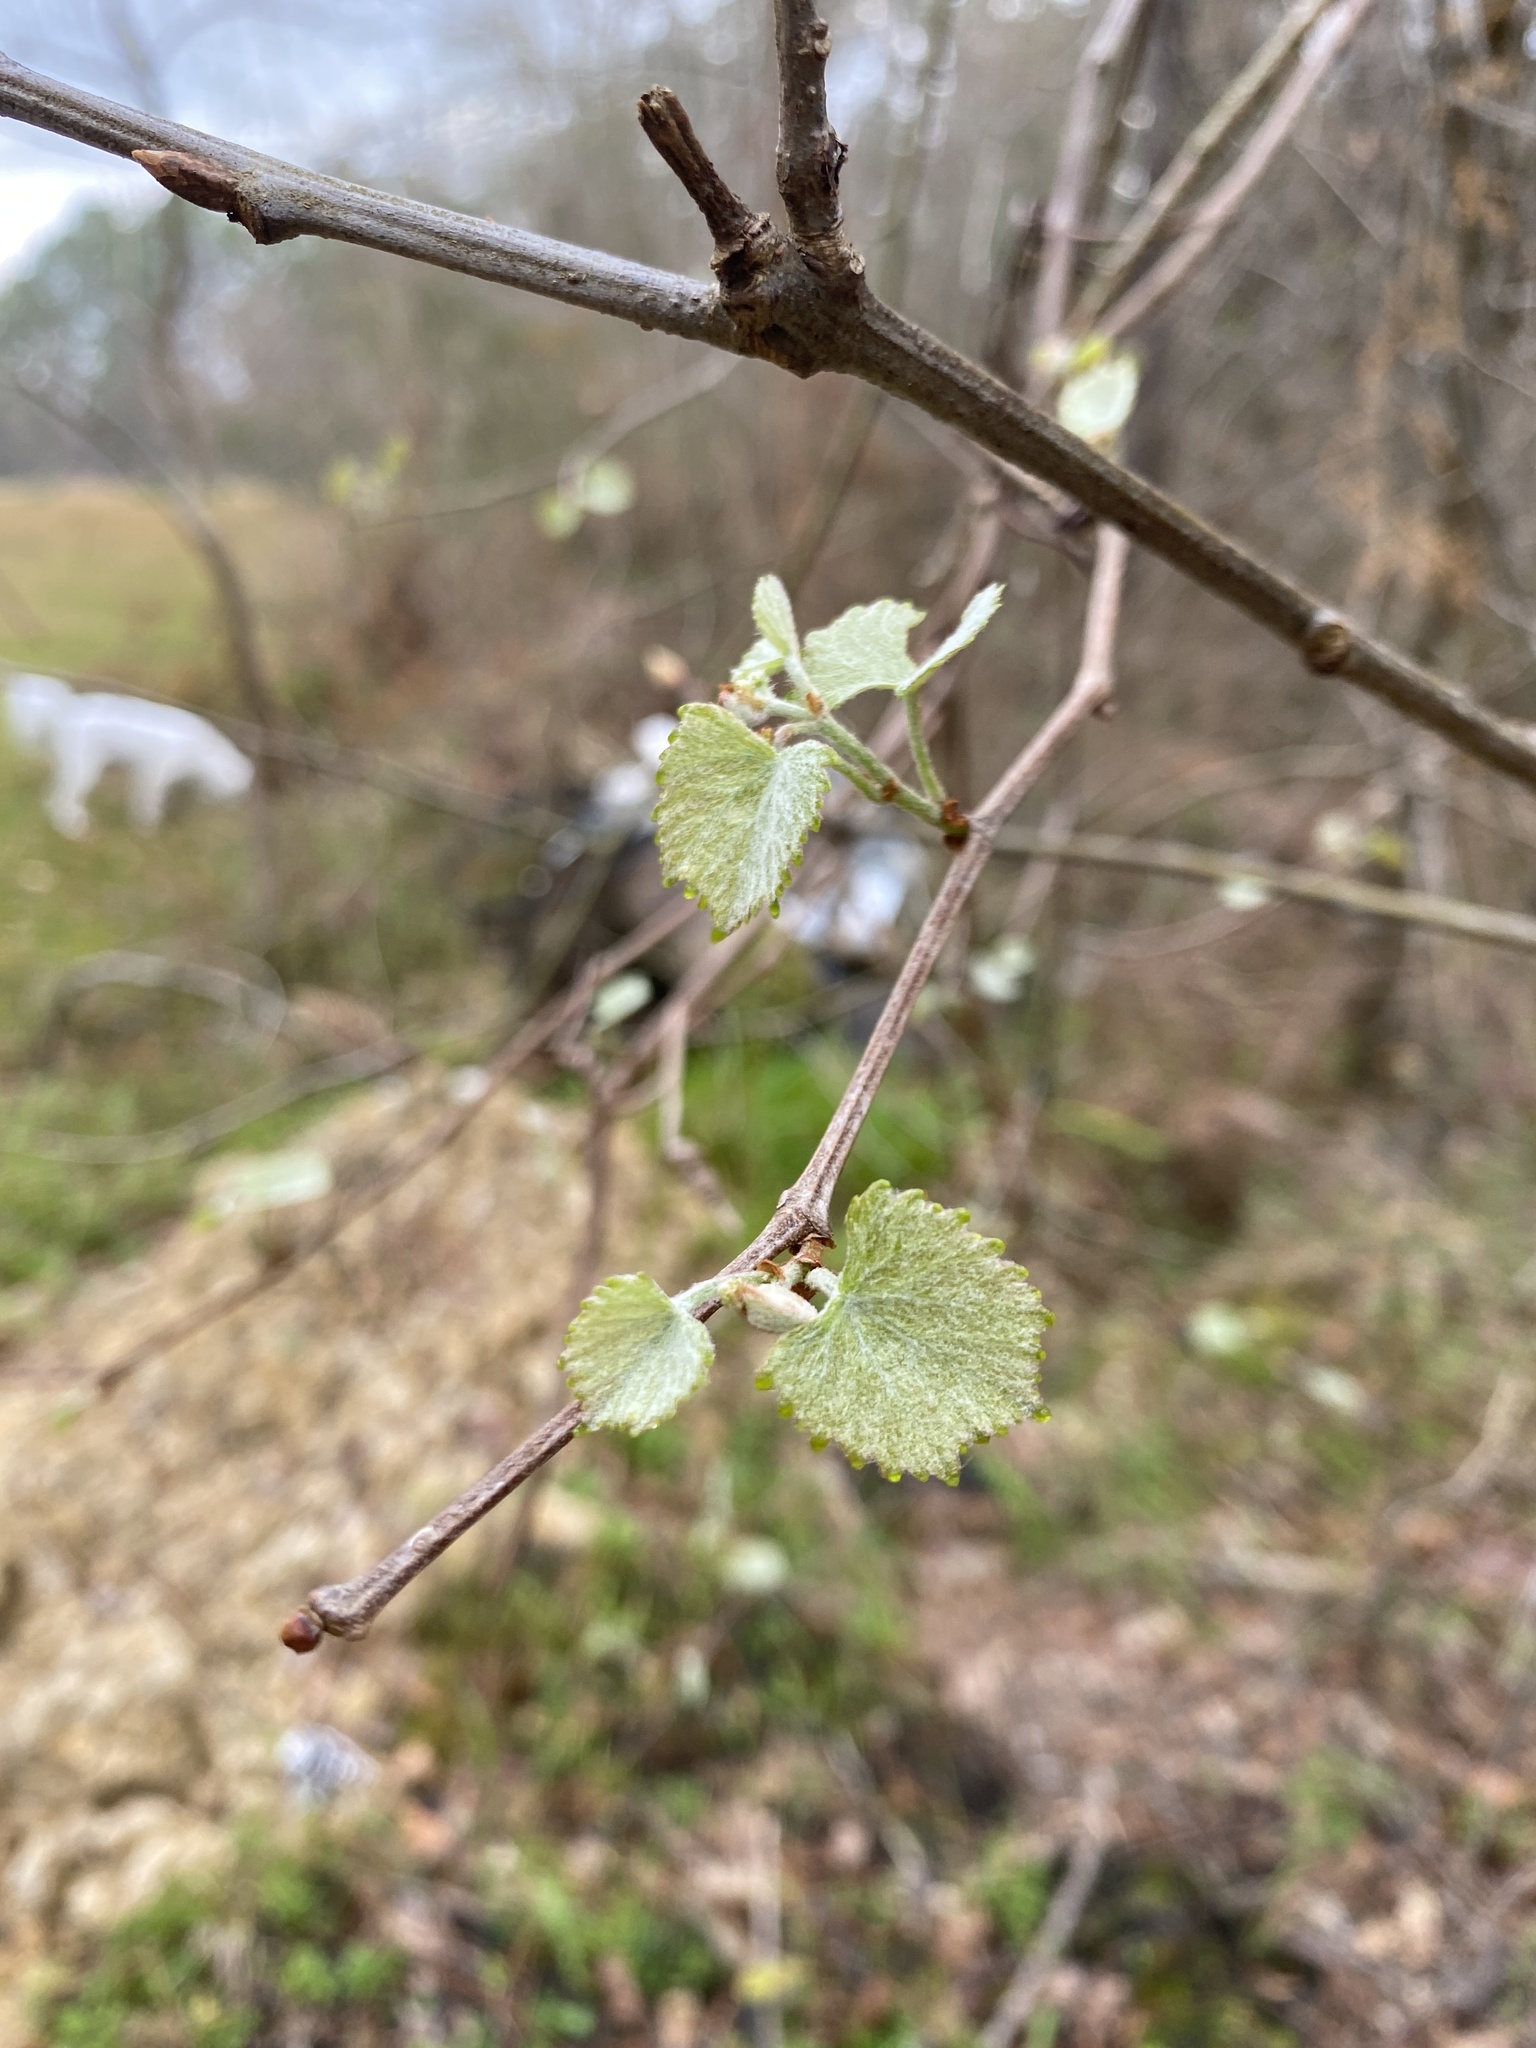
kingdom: Plantae
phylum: Tracheophyta
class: Magnoliopsida
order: Vitales
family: Vitaceae
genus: Vitis
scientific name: Vitis rotundifolia
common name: Muscadine grape
